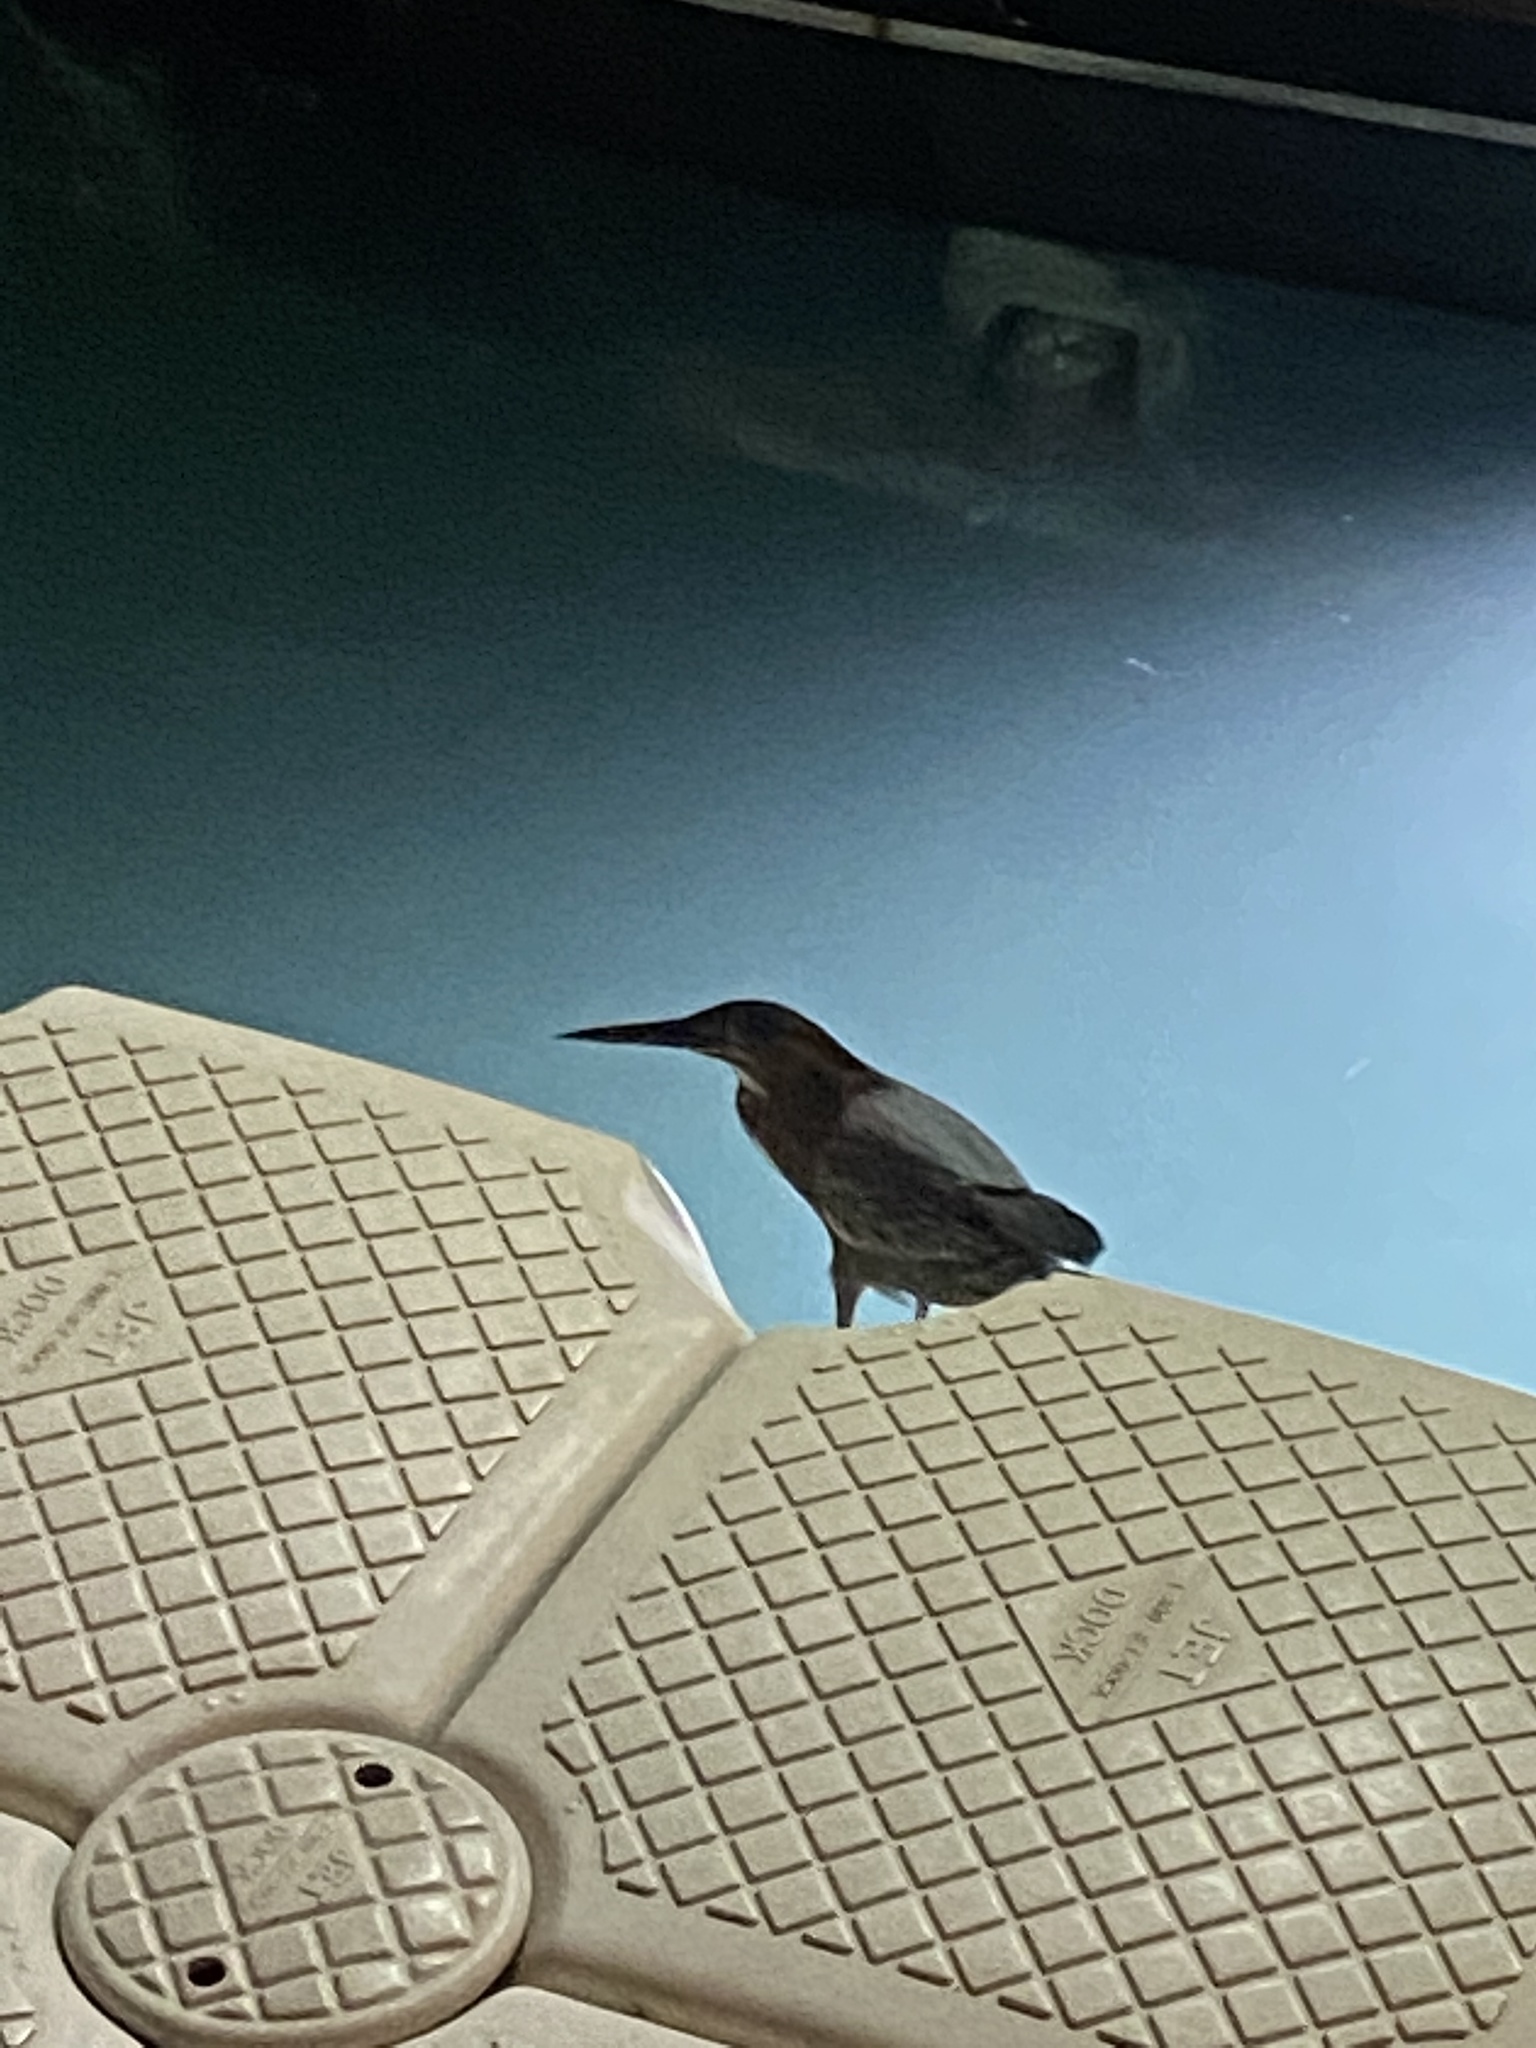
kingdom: Animalia
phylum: Chordata
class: Aves
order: Pelecaniformes
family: Ardeidae
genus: Butorides
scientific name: Butorides virescens
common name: Green heron
